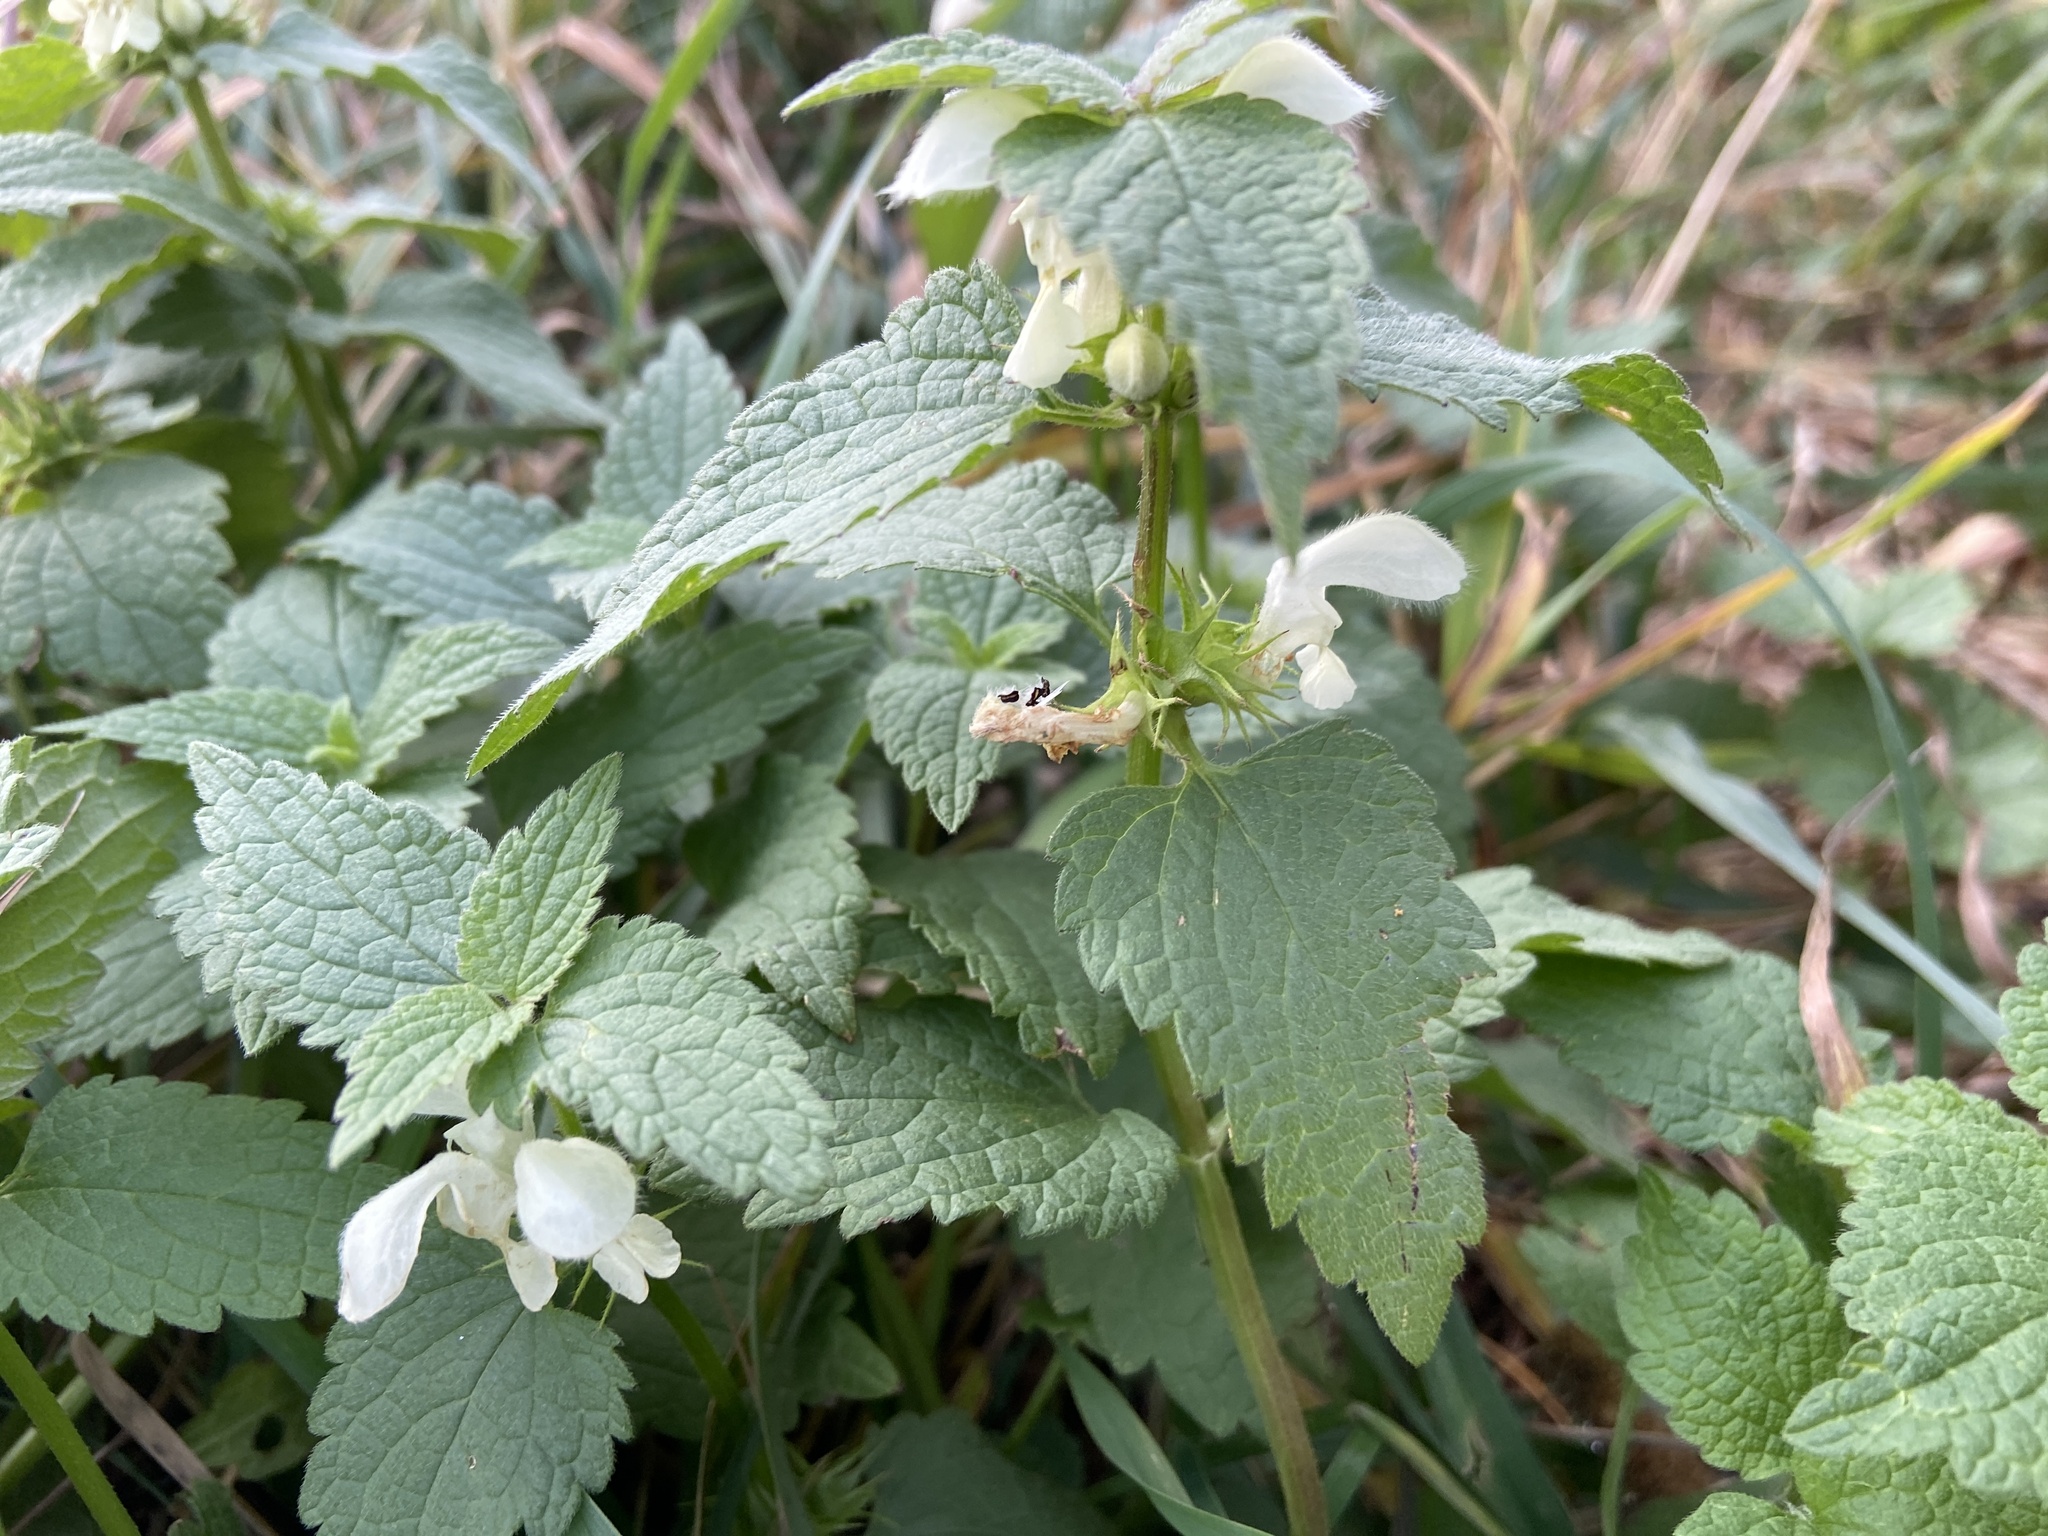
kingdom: Plantae
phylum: Tracheophyta
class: Magnoliopsida
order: Lamiales
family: Lamiaceae
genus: Lamium
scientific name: Lamium album
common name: White dead-nettle
